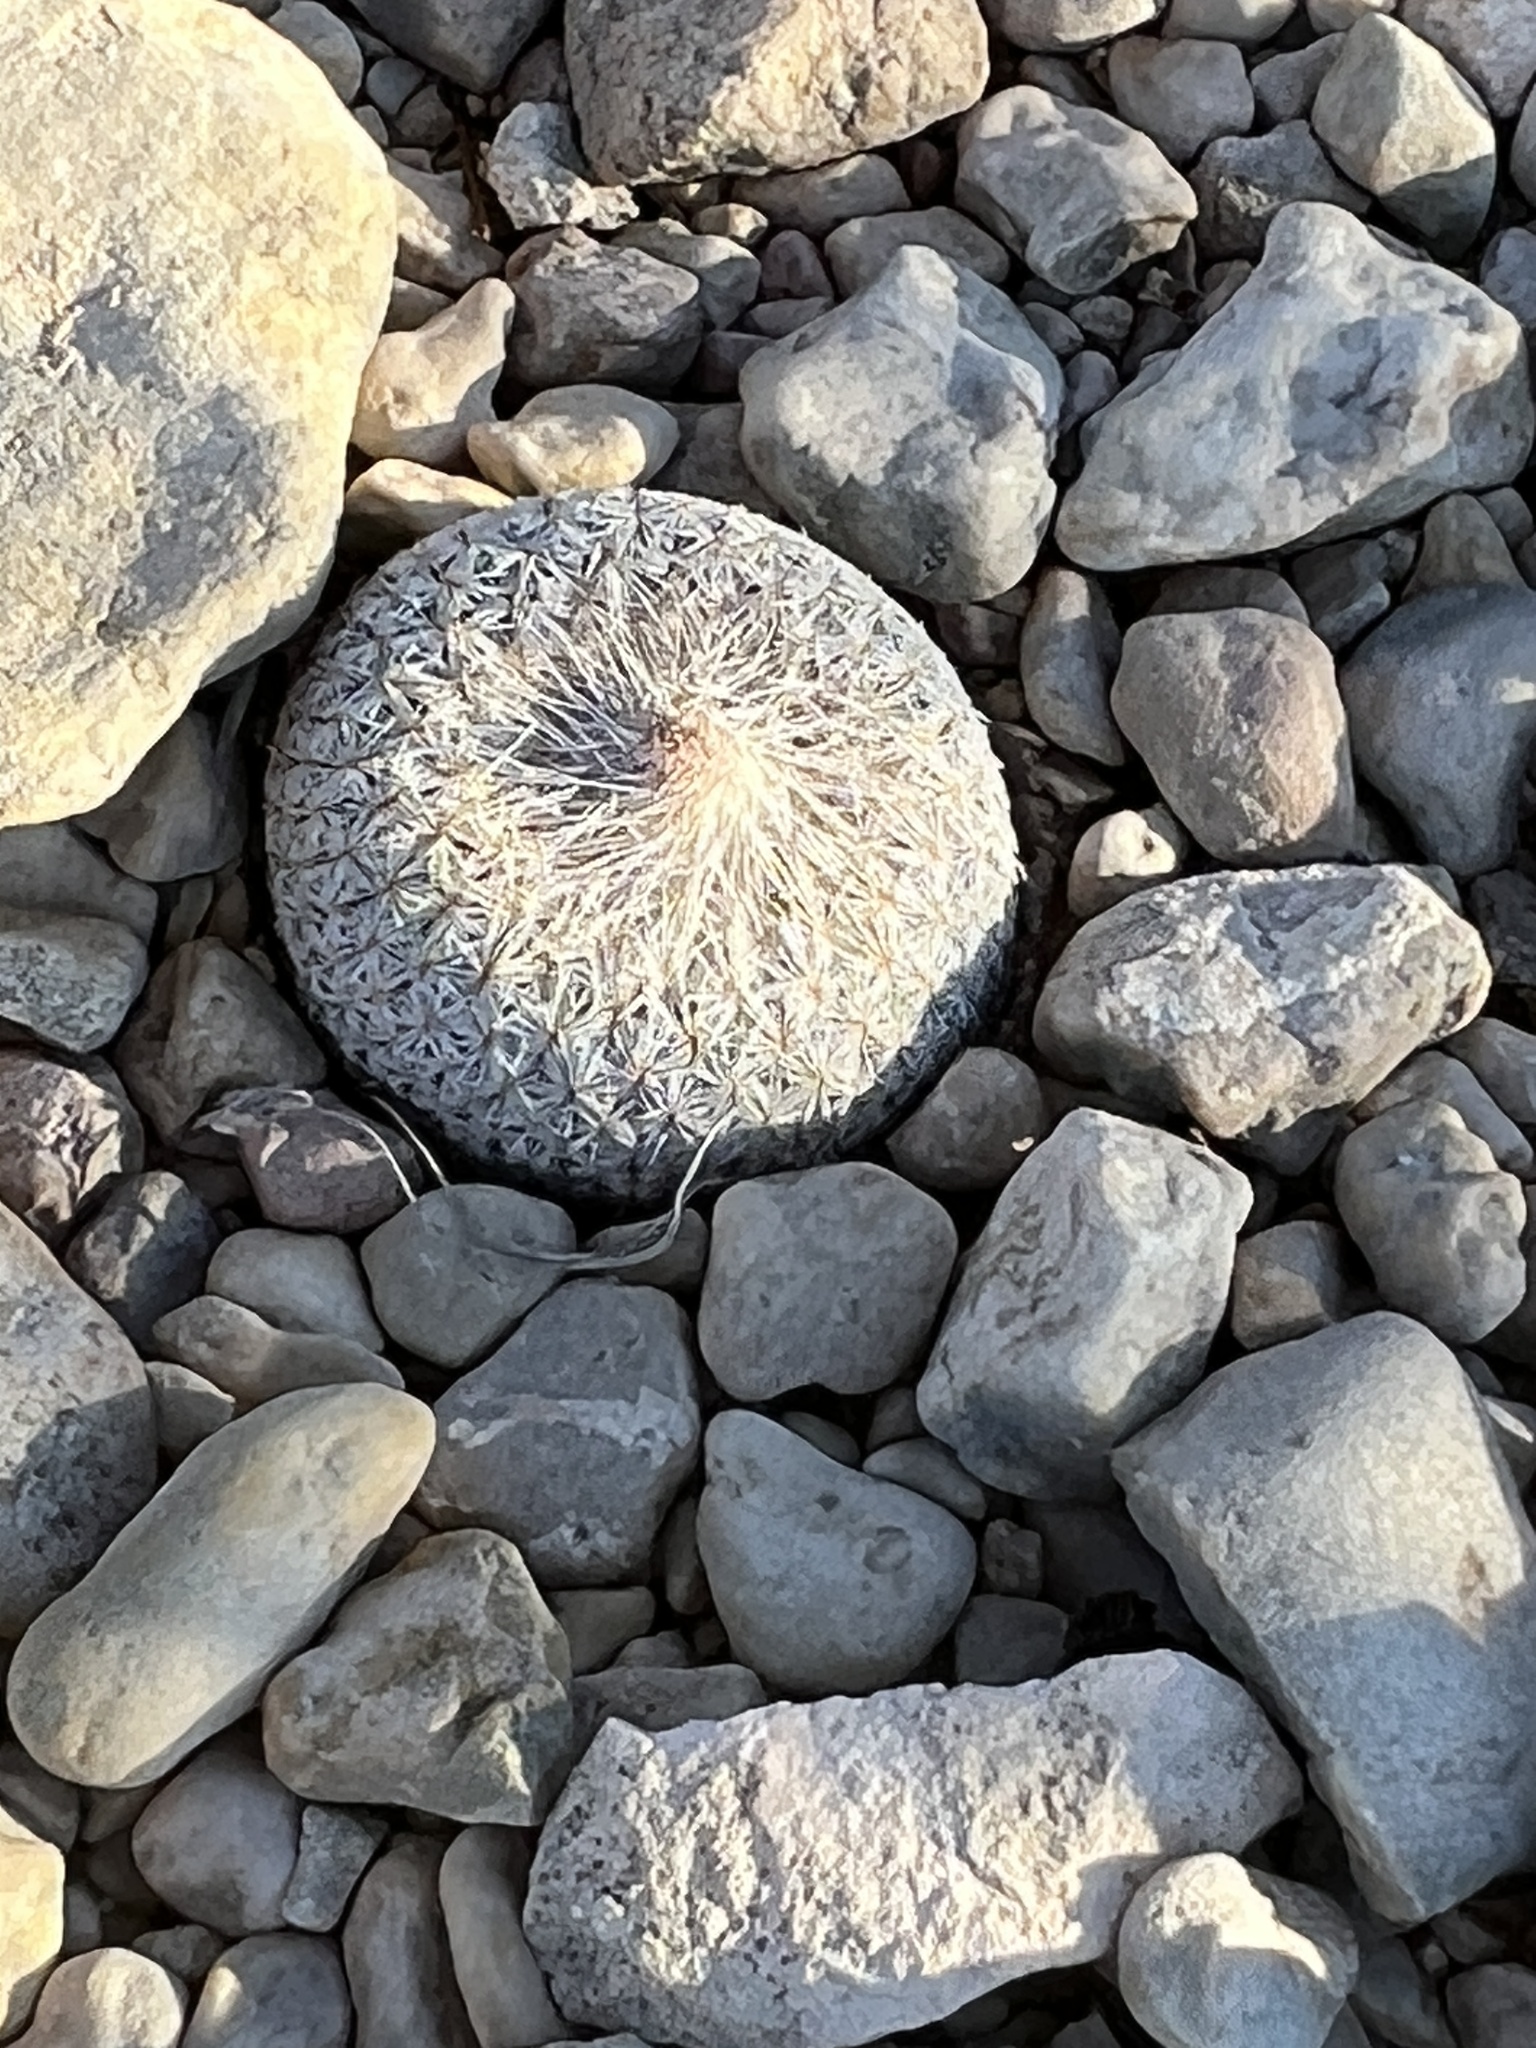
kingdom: Plantae
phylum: Tracheophyta
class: Magnoliopsida
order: Caryophyllales
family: Cactaceae
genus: Epithelantha
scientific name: Epithelantha micromeris
